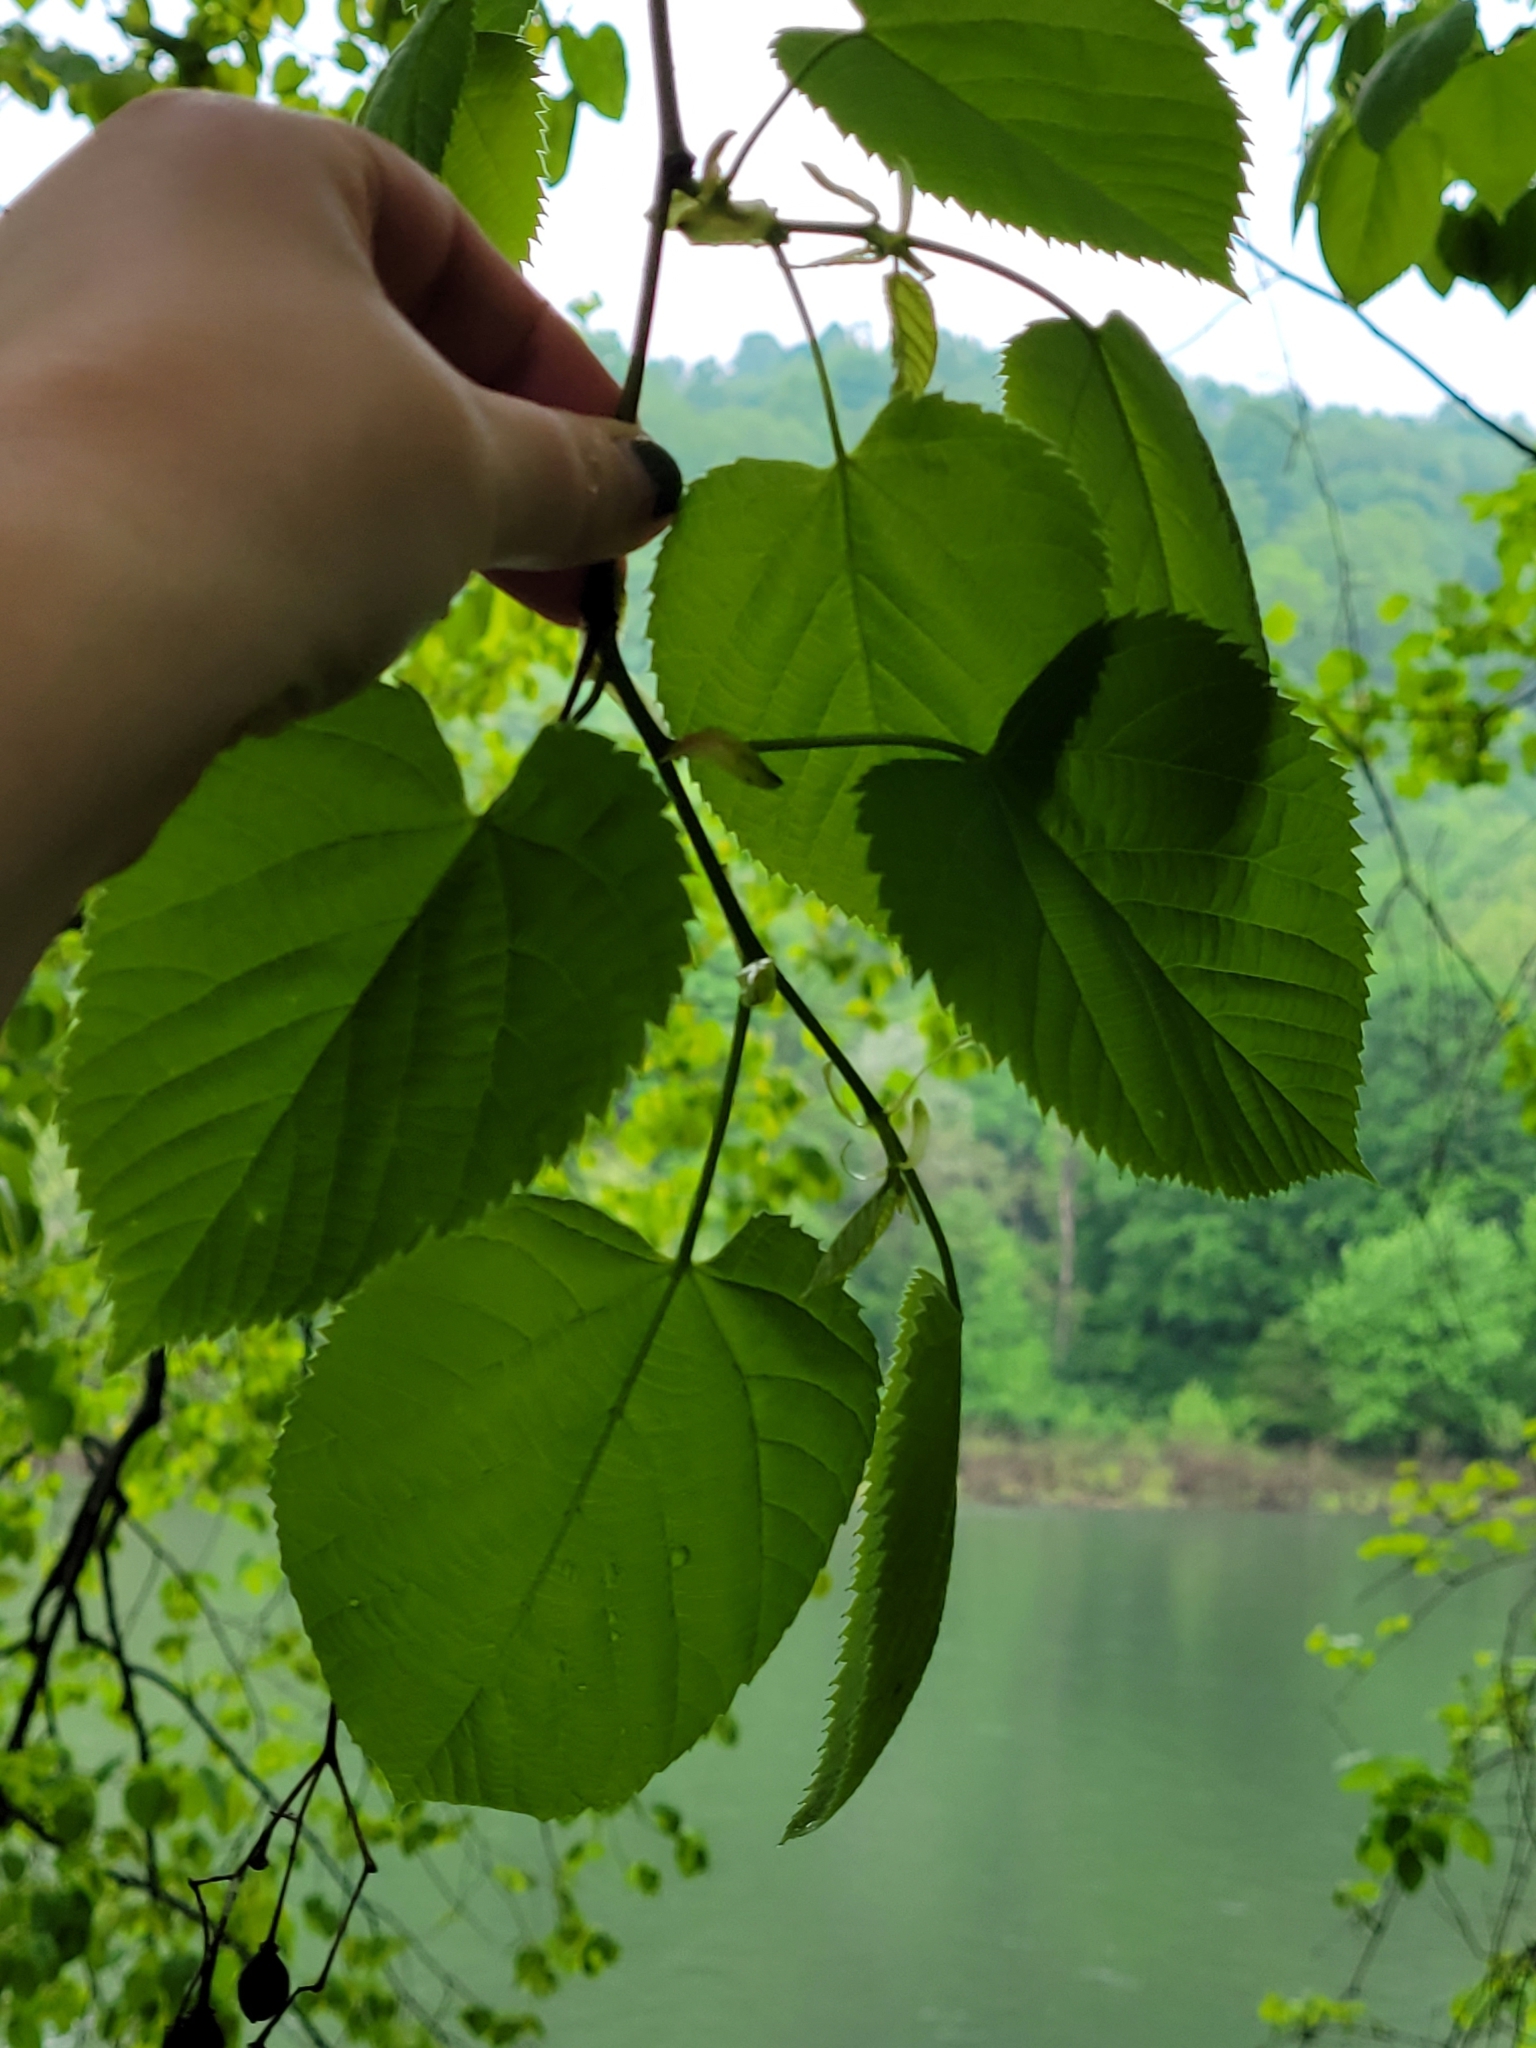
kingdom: Plantae
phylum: Tracheophyta
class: Magnoliopsida
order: Malvales
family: Malvaceae
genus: Tilia
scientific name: Tilia americana
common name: Basswood
